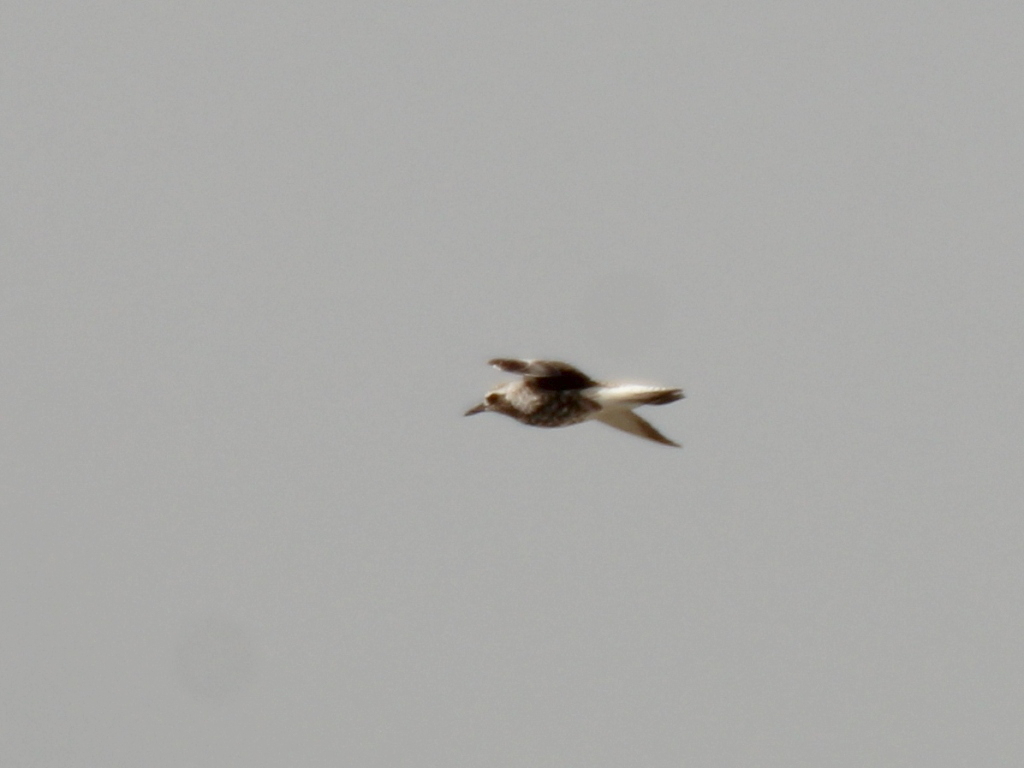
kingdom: Animalia
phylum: Chordata
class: Aves
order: Charadriiformes
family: Charadriidae
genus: Pluvialis
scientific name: Pluvialis squatarola
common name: Grey plover
